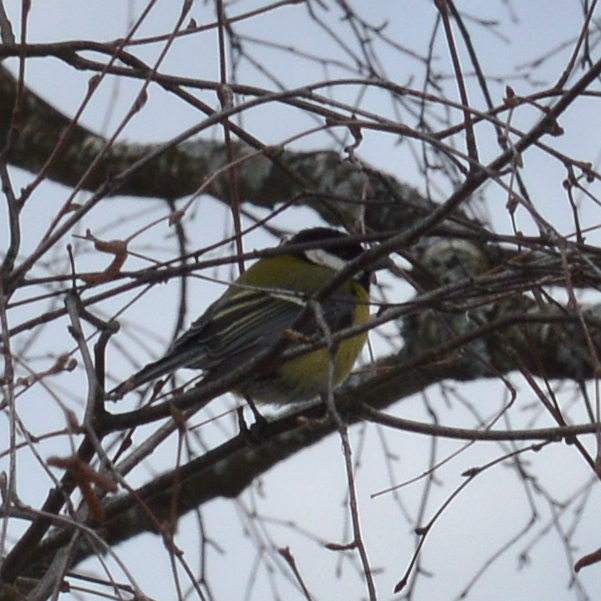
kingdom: Animalia
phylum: Chordata
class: Aves
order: Passeriformes
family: Paridae
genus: Parus
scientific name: Parus major
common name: Great tit
